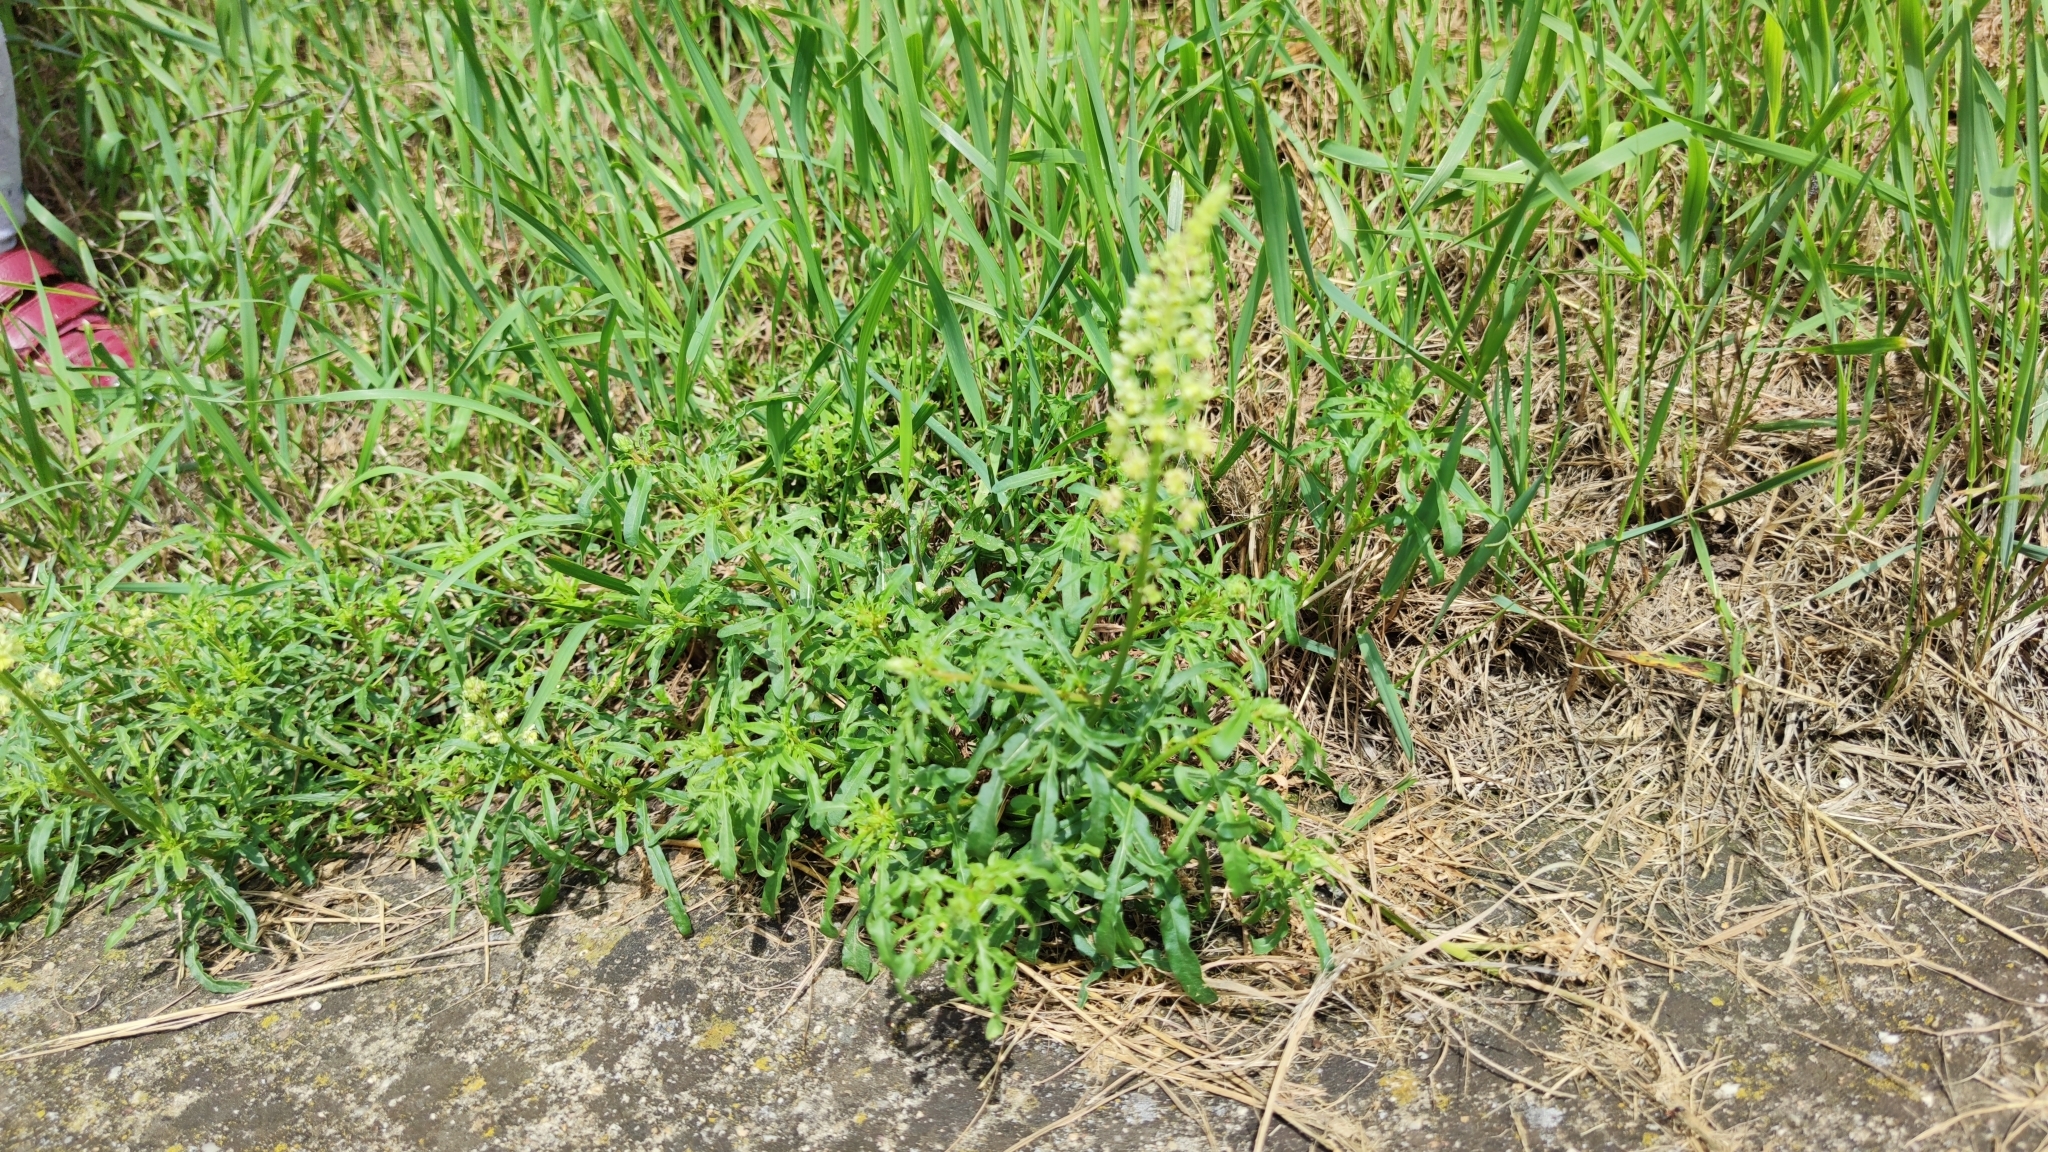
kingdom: Plantae
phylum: Tracheophyta
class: Magnoliopsida
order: Brassicales
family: Resedaceae
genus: Reseda
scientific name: Reseda lutea
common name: Wild mignonette
